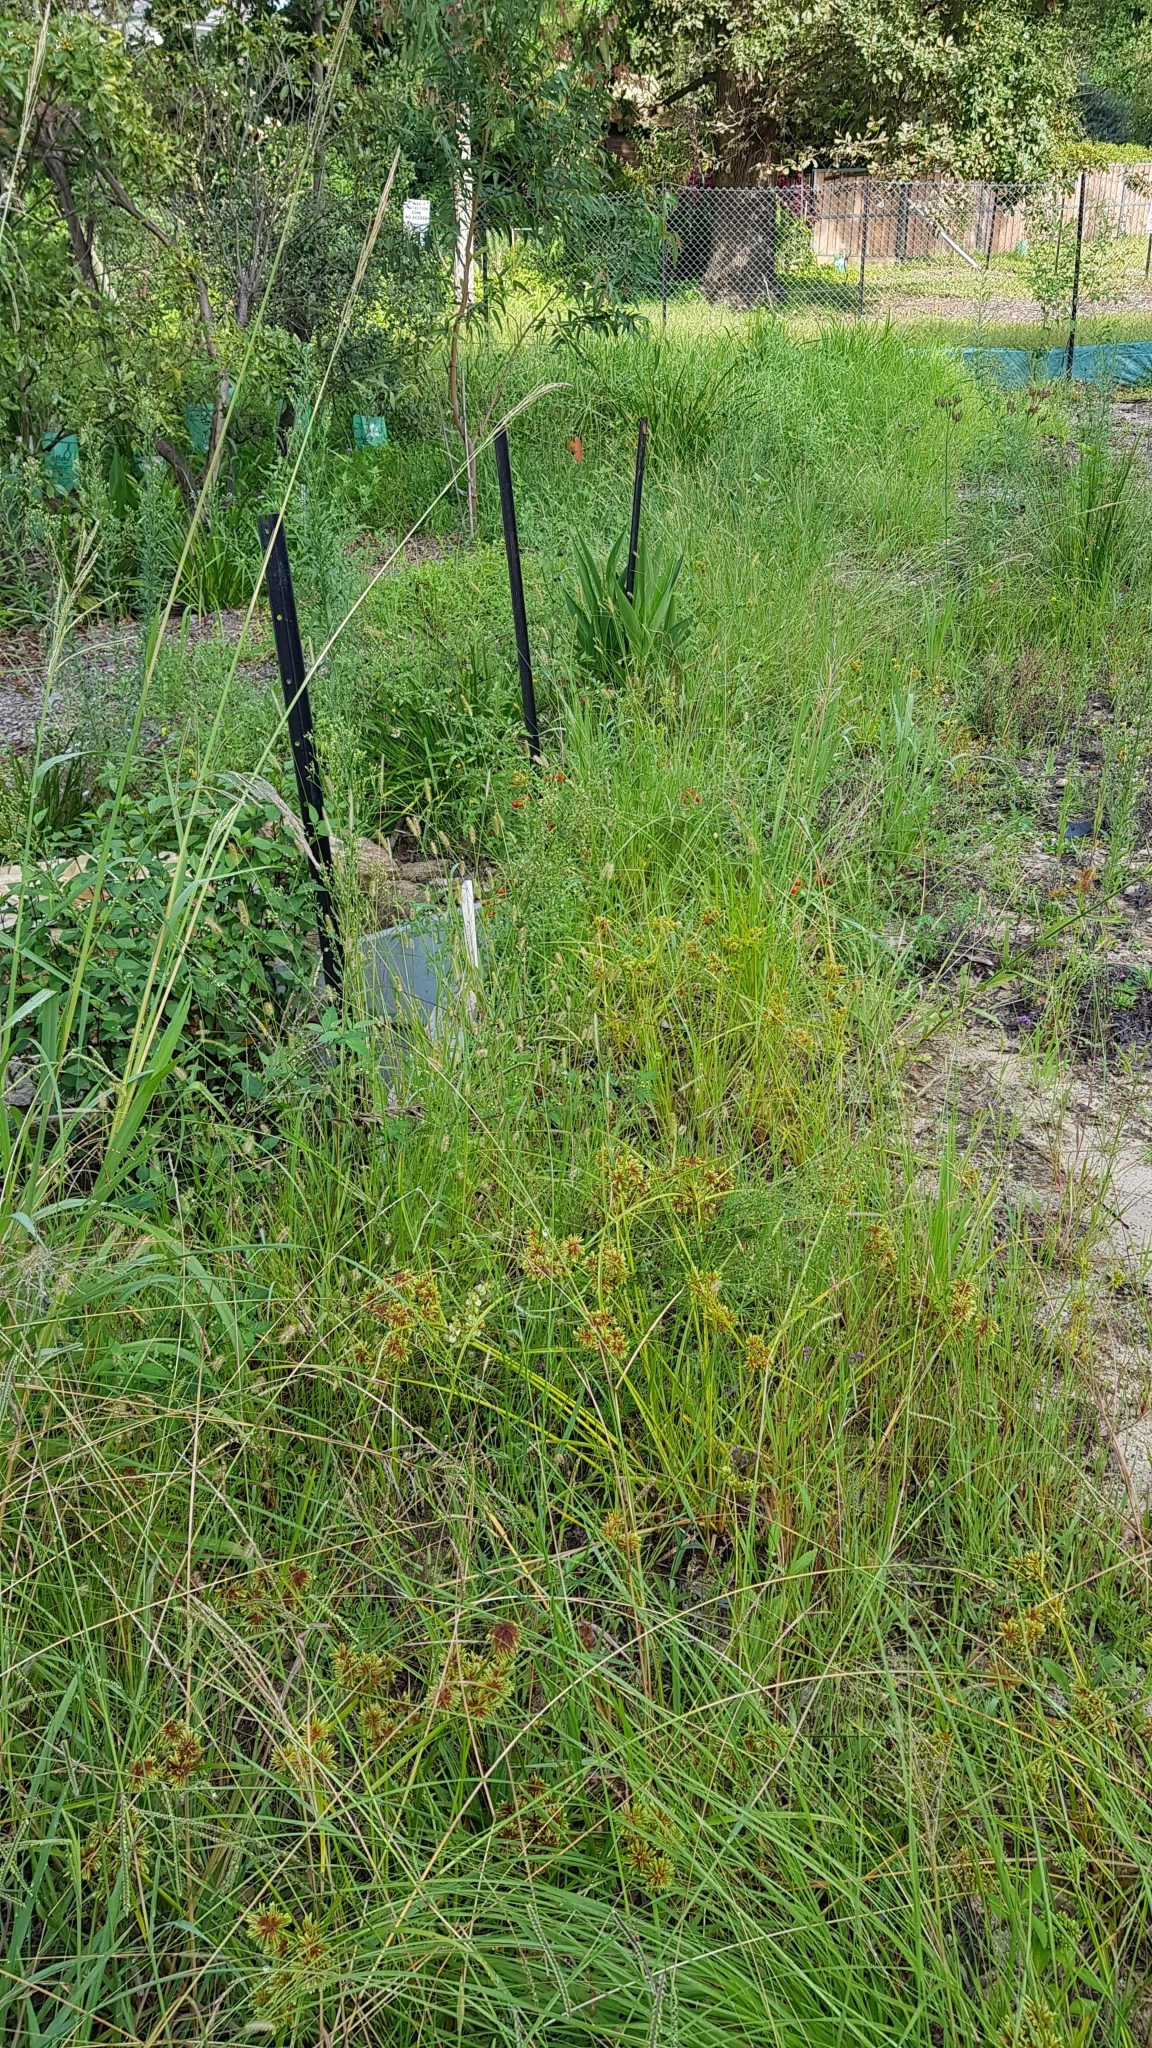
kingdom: Plantae
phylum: Tracheophyta
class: Magnoliopsida
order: Solanales
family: Solanaceae
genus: Solanum
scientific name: Solanum lycopersicum
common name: Garden tomato
